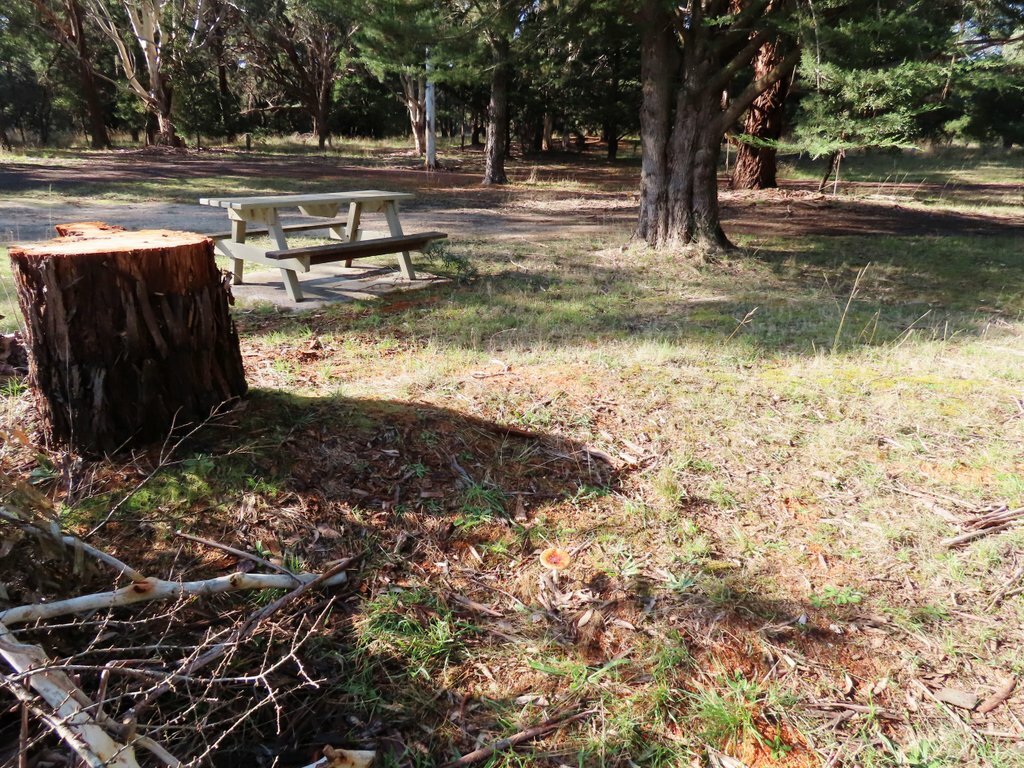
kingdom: Fungi
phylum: Basidiomycota
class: Agaricomycetes
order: Agaricales
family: Amanitaceae
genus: Amanita
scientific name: Amanita muscaria
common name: Fly agaric
